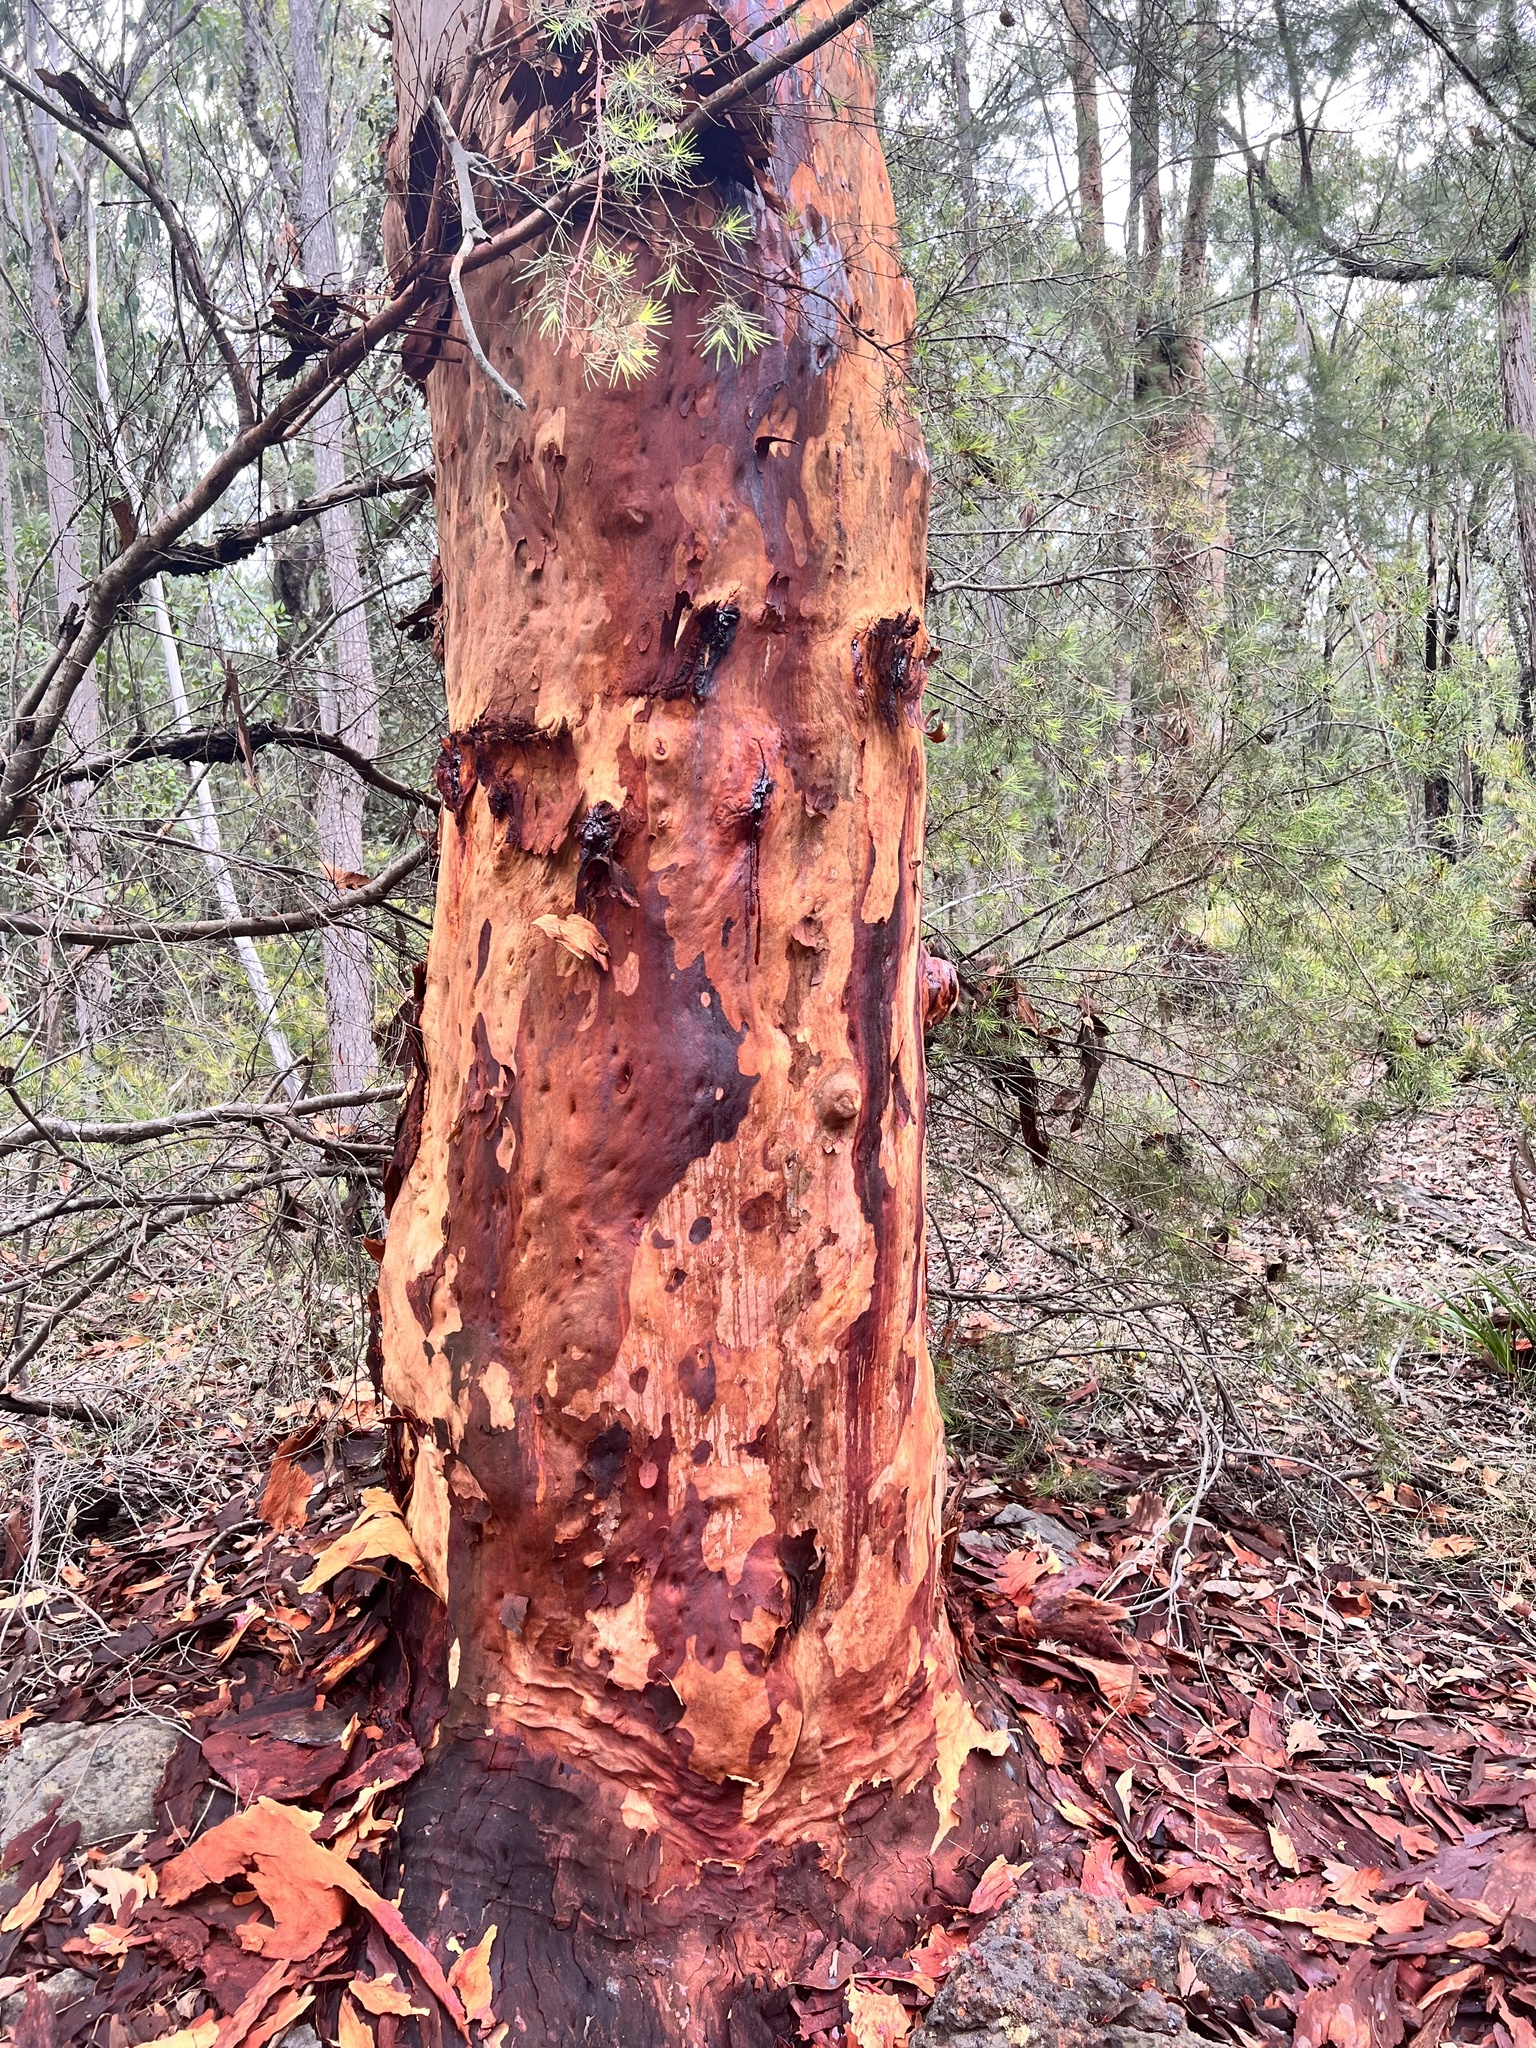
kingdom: Plantae
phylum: Tracheophyta
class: Magnoliopsida
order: Myrtales
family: Myrtaceae
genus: Angophora
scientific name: Angophora costata
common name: Gum myrtle
